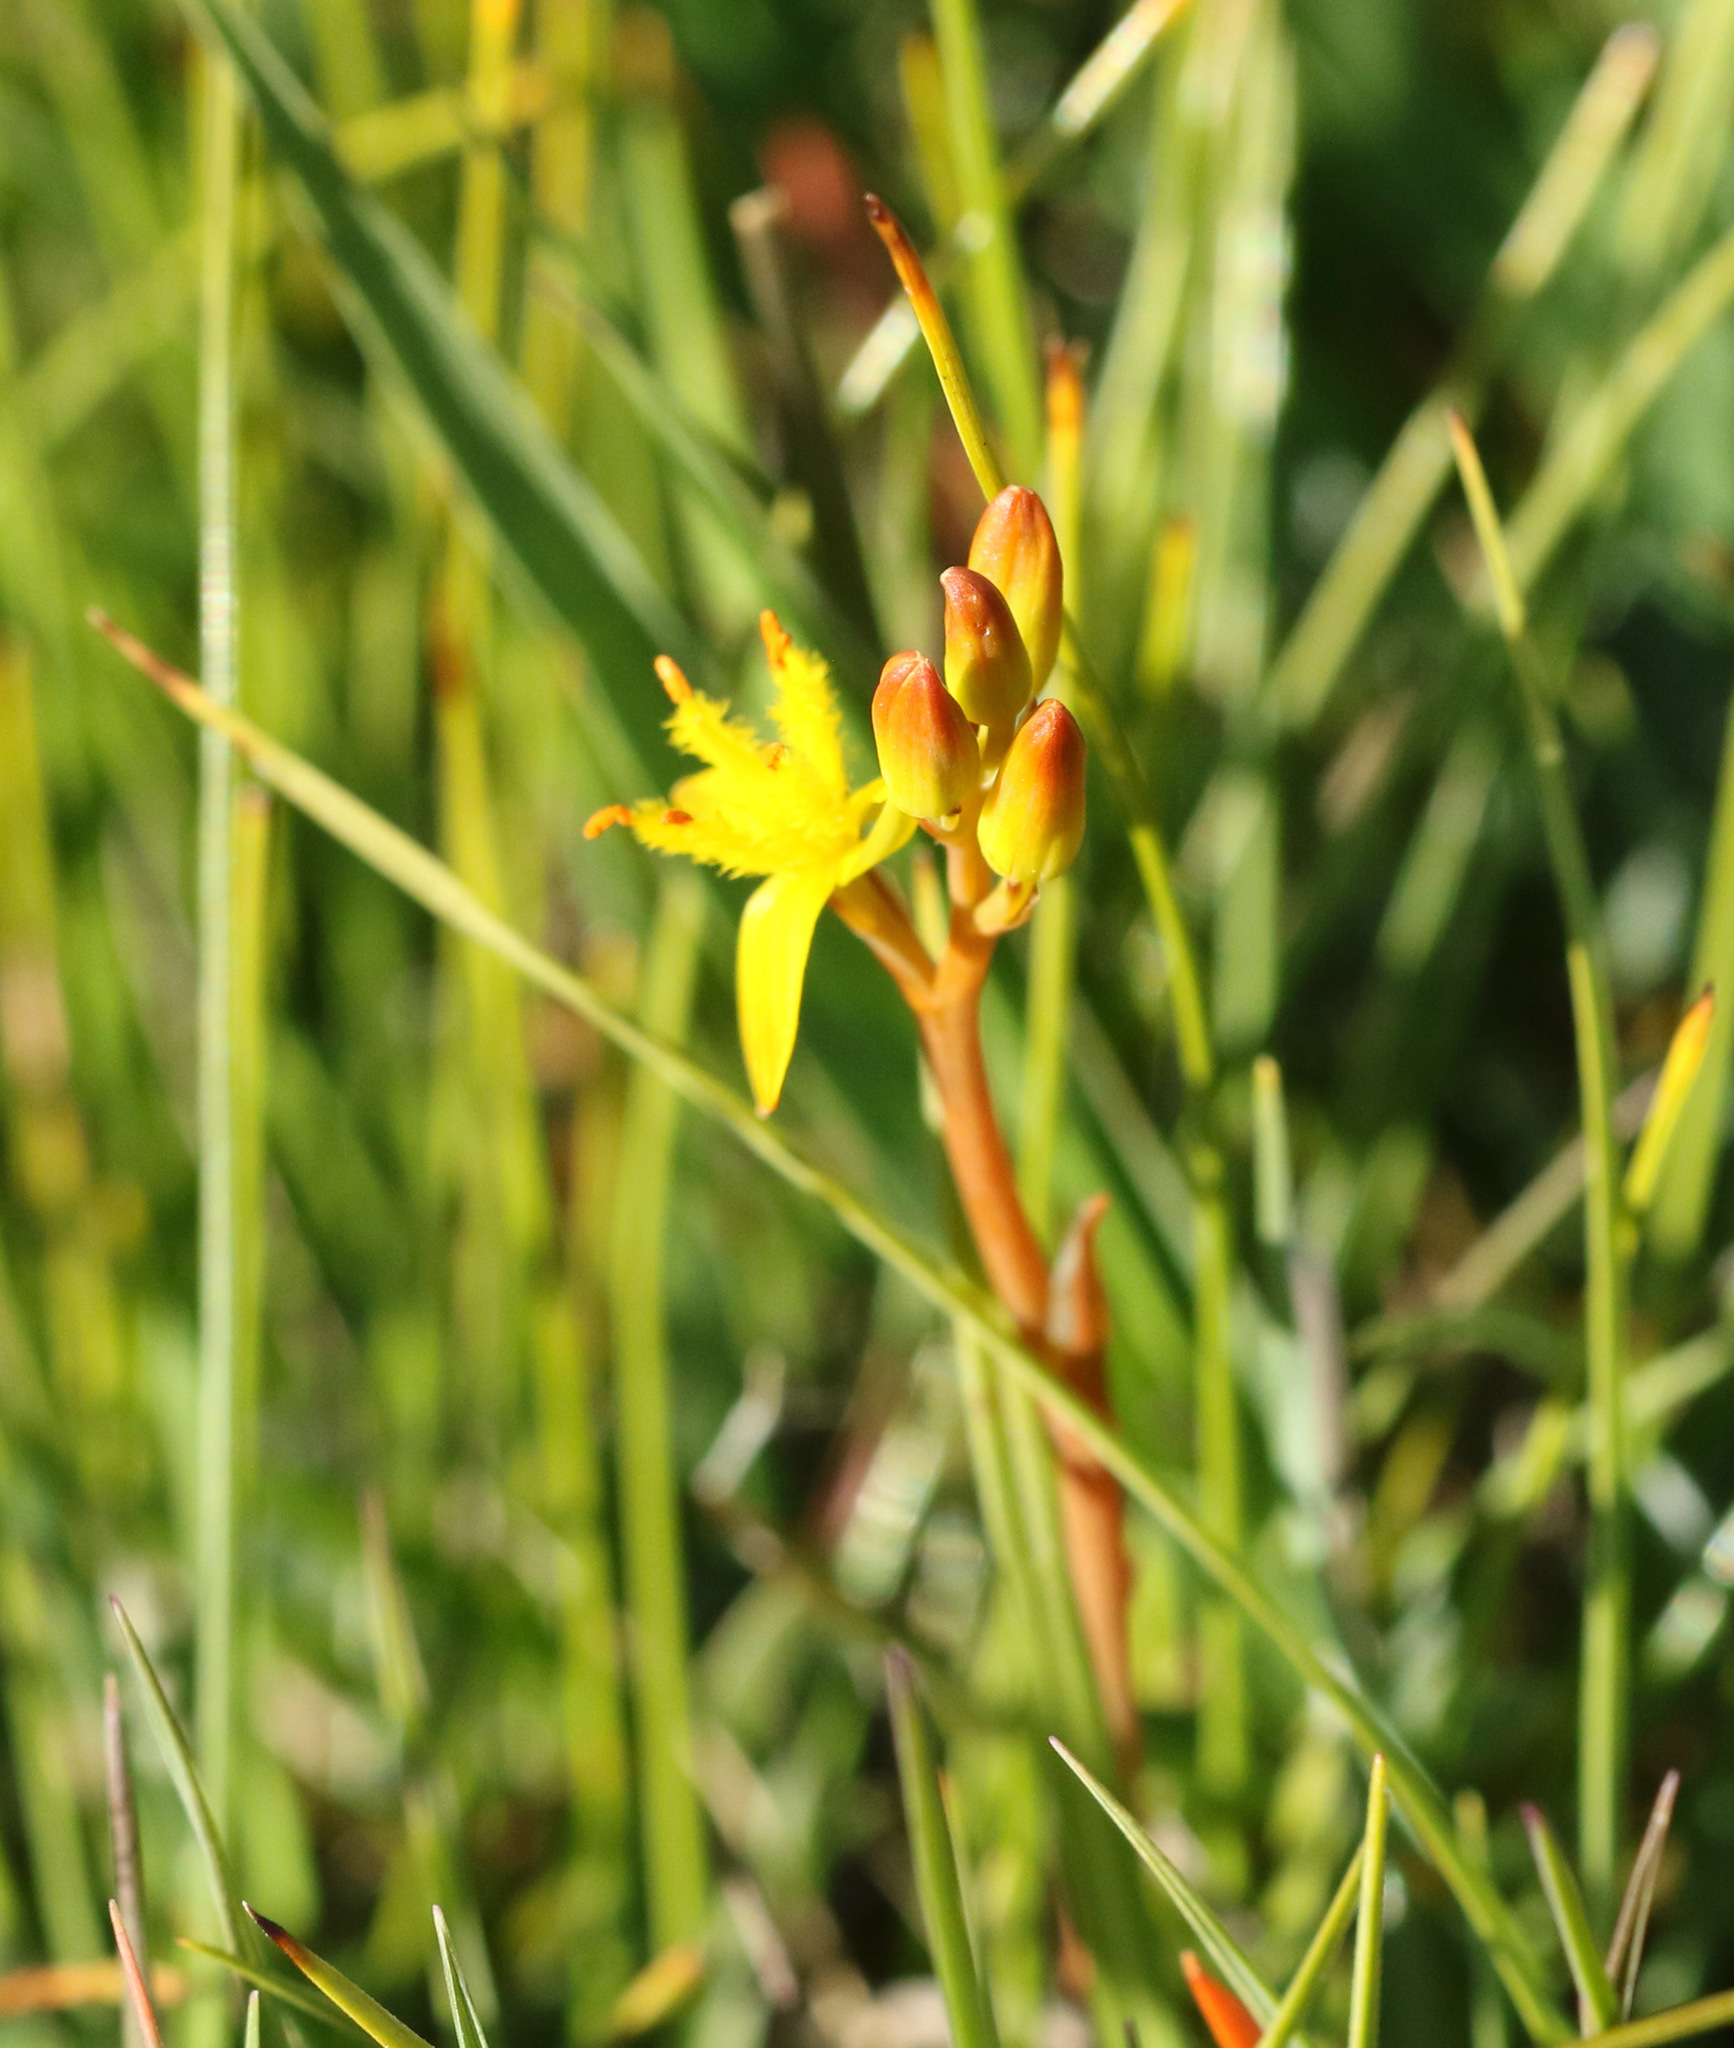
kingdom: Plantae
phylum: Tracheophyta
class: Liliopsida
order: Dioscoreales
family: Nartheciaceae
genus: Narthecium
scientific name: Narthecium ossifragum
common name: Bog asphodel
